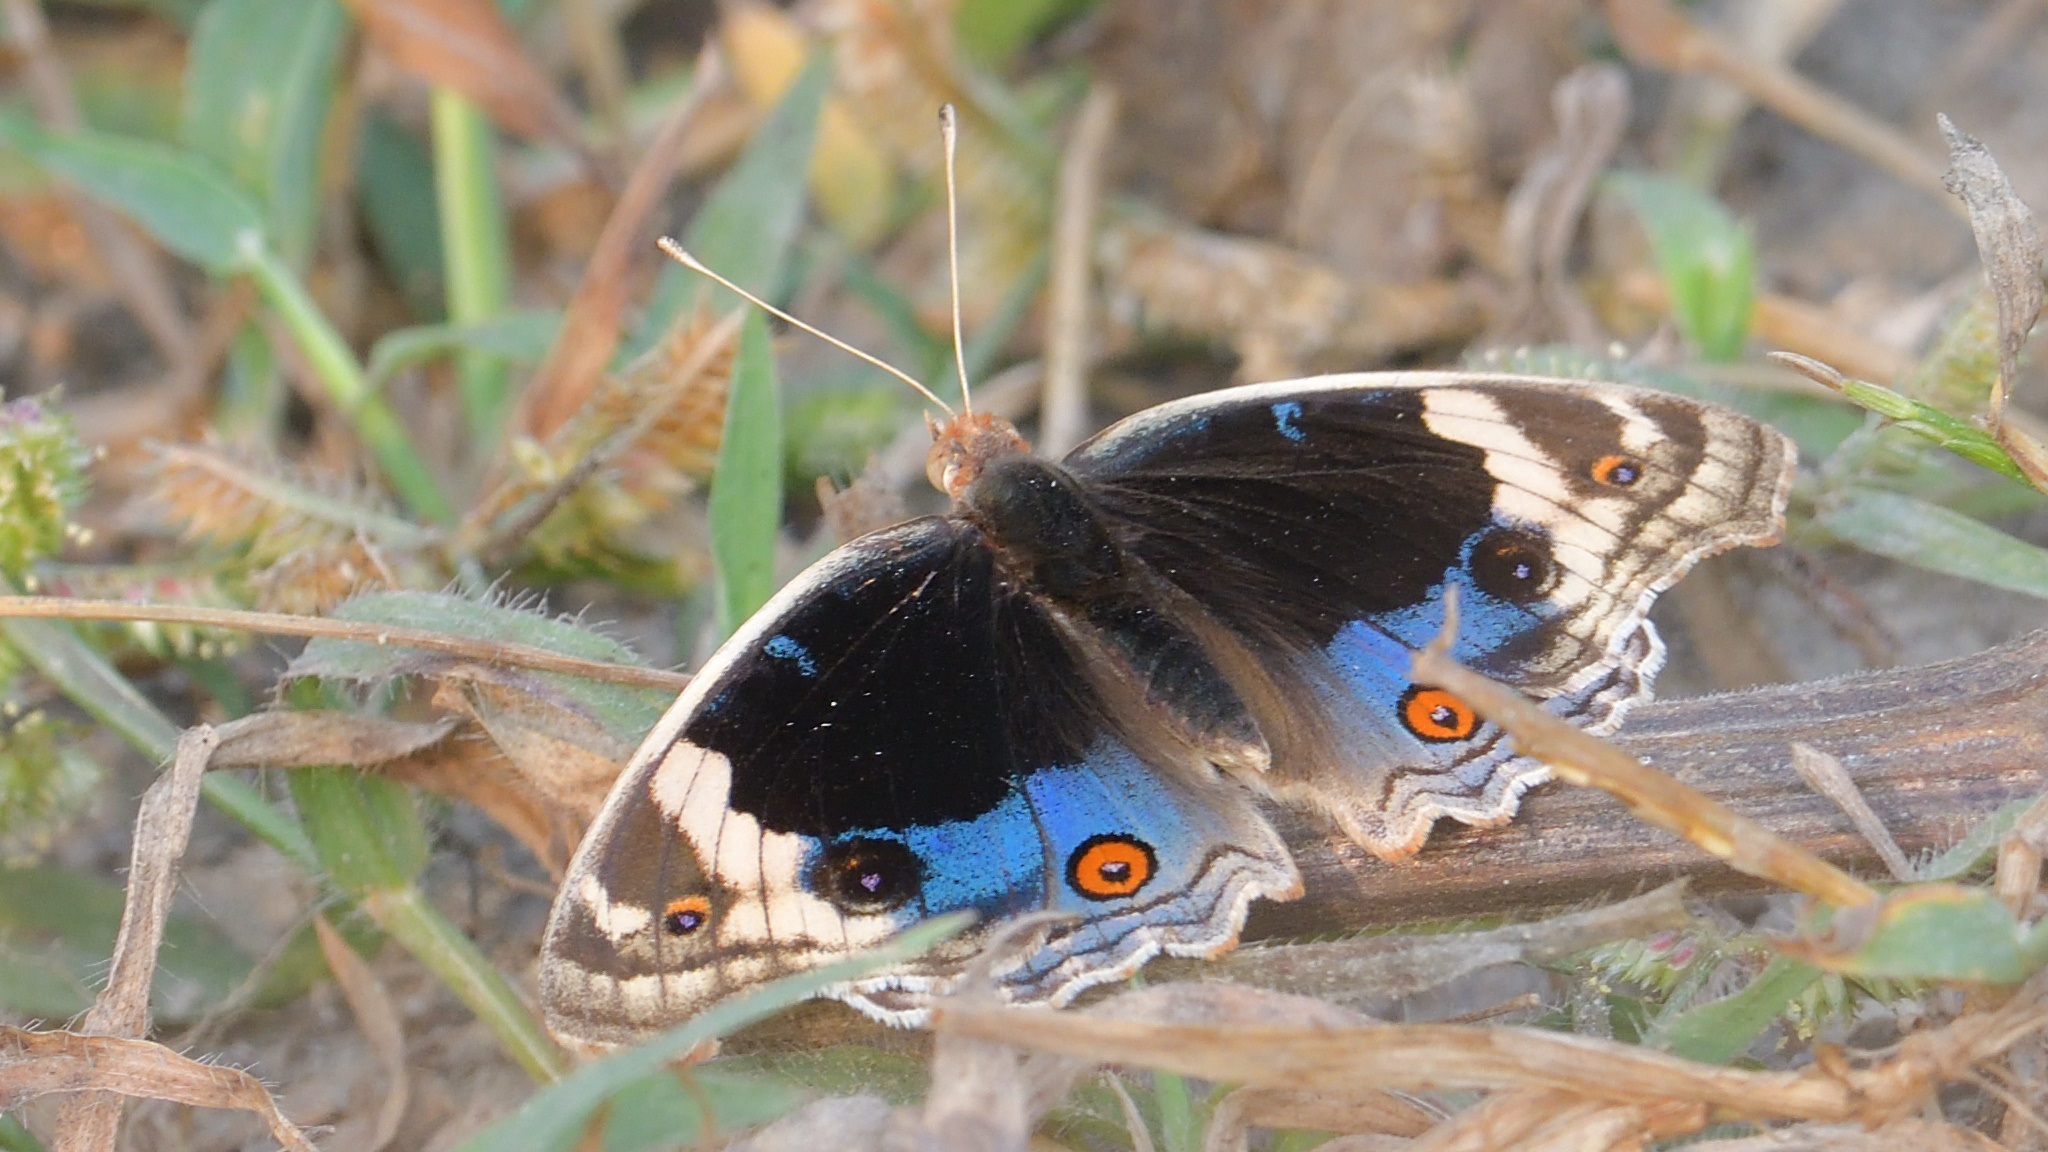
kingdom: Animalia
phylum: Arthropoda
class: Insecta
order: Lepidoptera
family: Nymphalidae
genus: Junonia
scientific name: Junonia orithya
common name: Blue pansy
